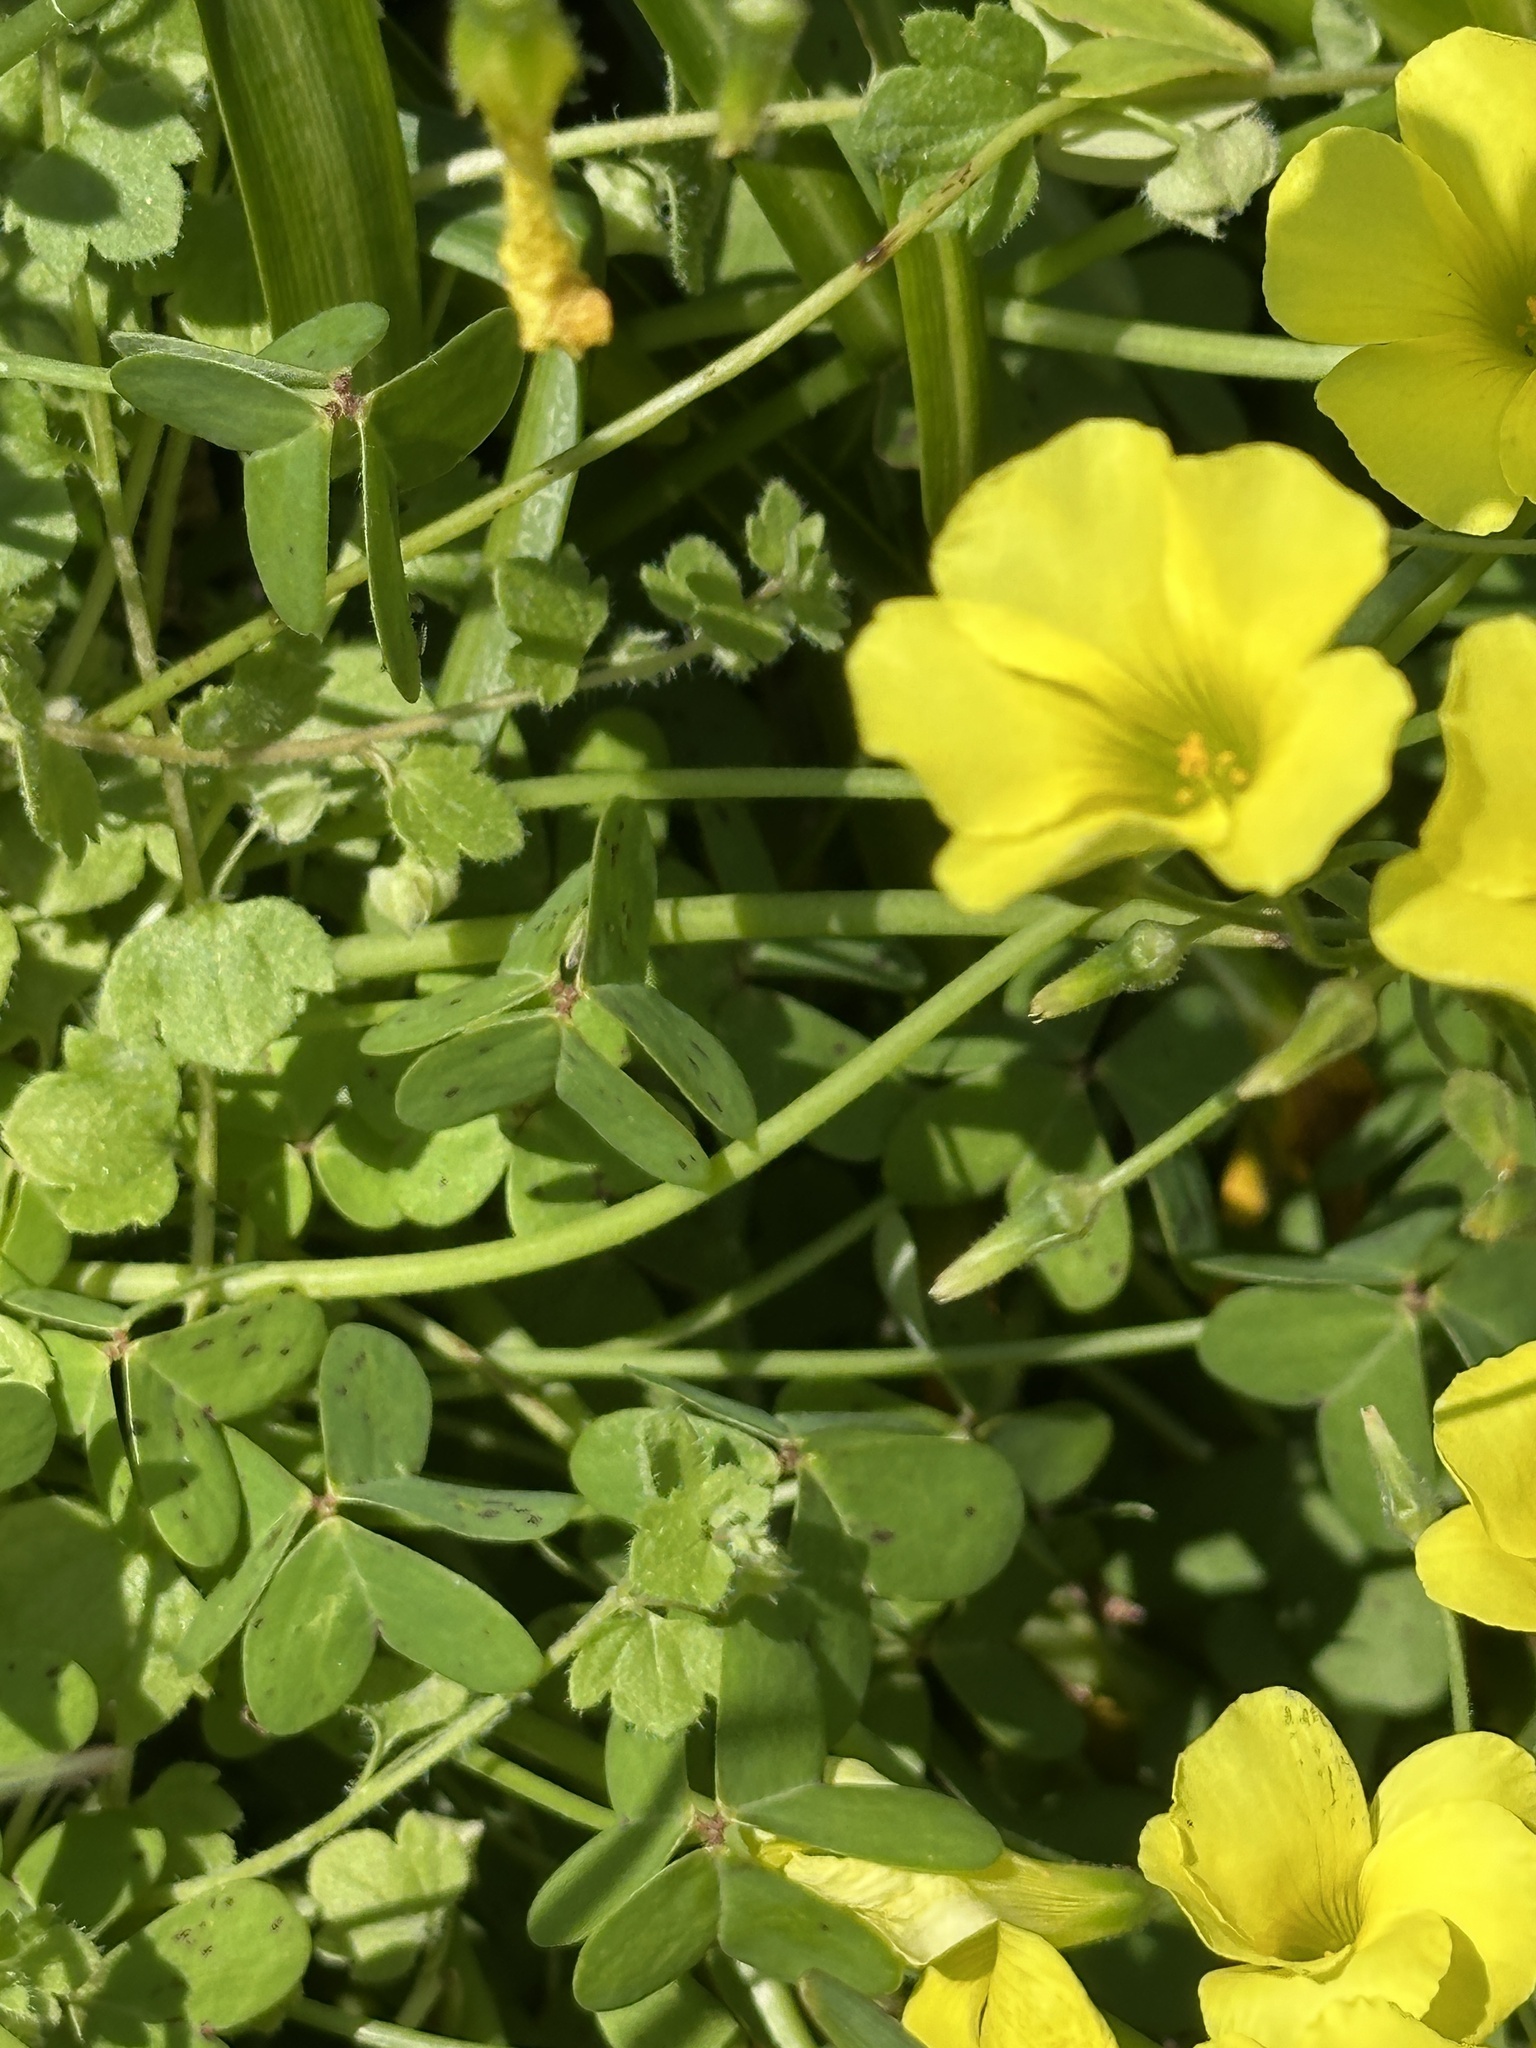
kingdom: Plantae
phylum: Tracheophyta
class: Magnoliopsida
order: Oxalidales
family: Oxalidaceae
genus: Oxalis
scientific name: Oxalis pes-caprae
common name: Bermuda-buttercup
